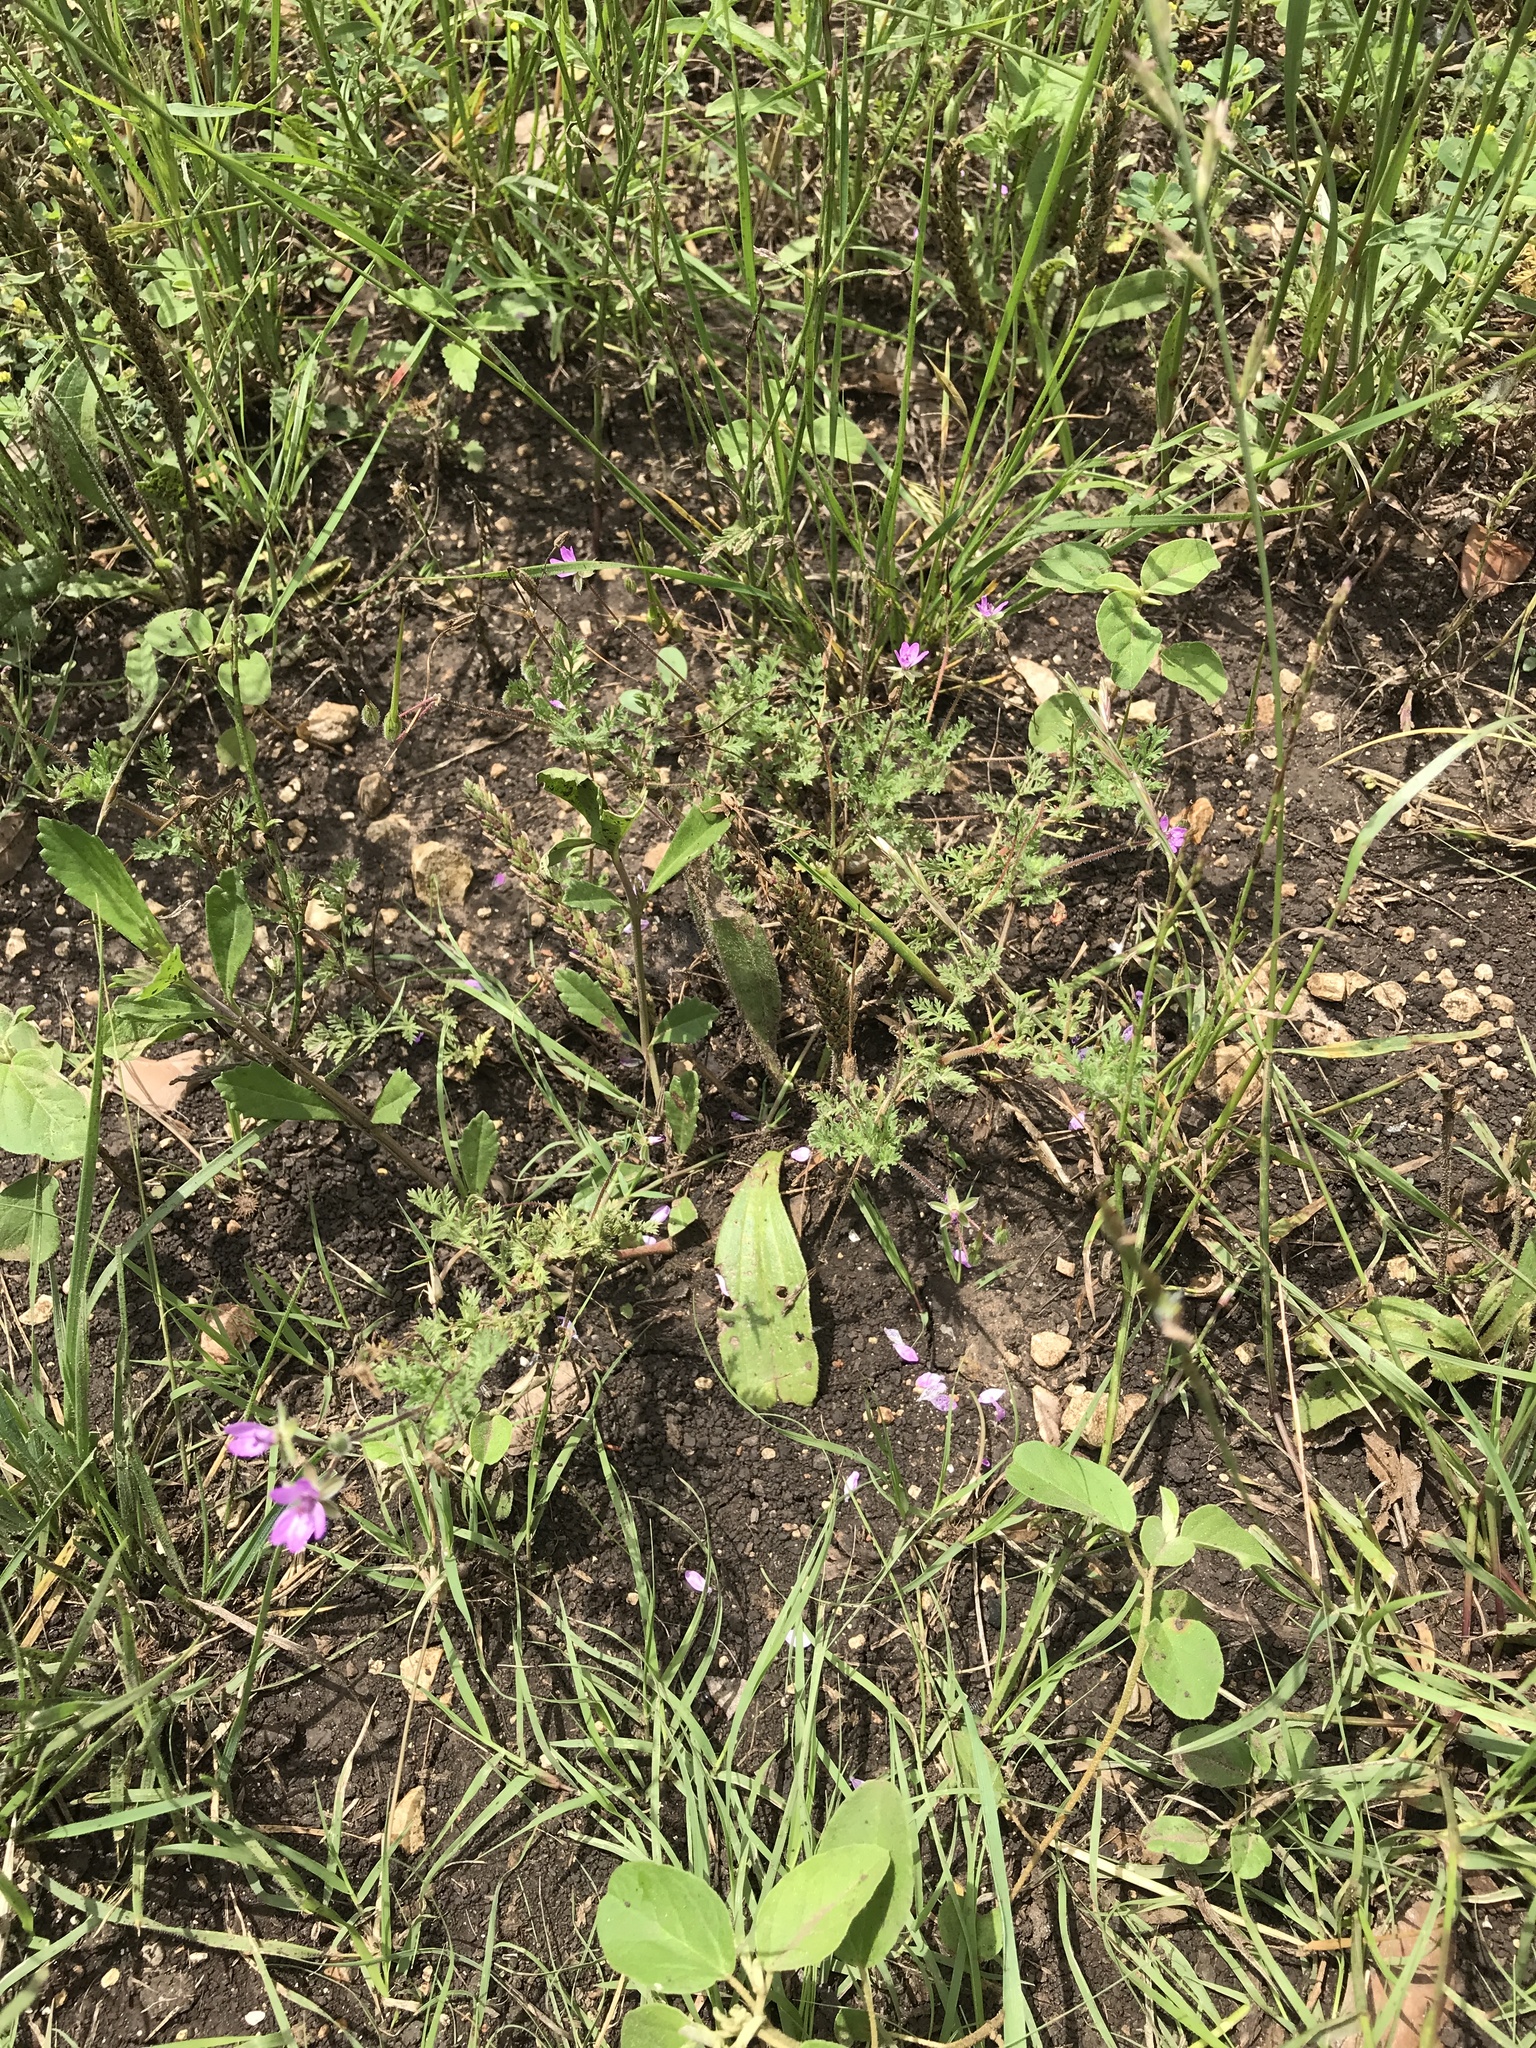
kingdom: Plantae
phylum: Tracheophyta
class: Magnoliopsida
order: Geraniales
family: Geraniaceae
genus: Erodium
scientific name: Erodium cicutarium
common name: Common stork's-bill
